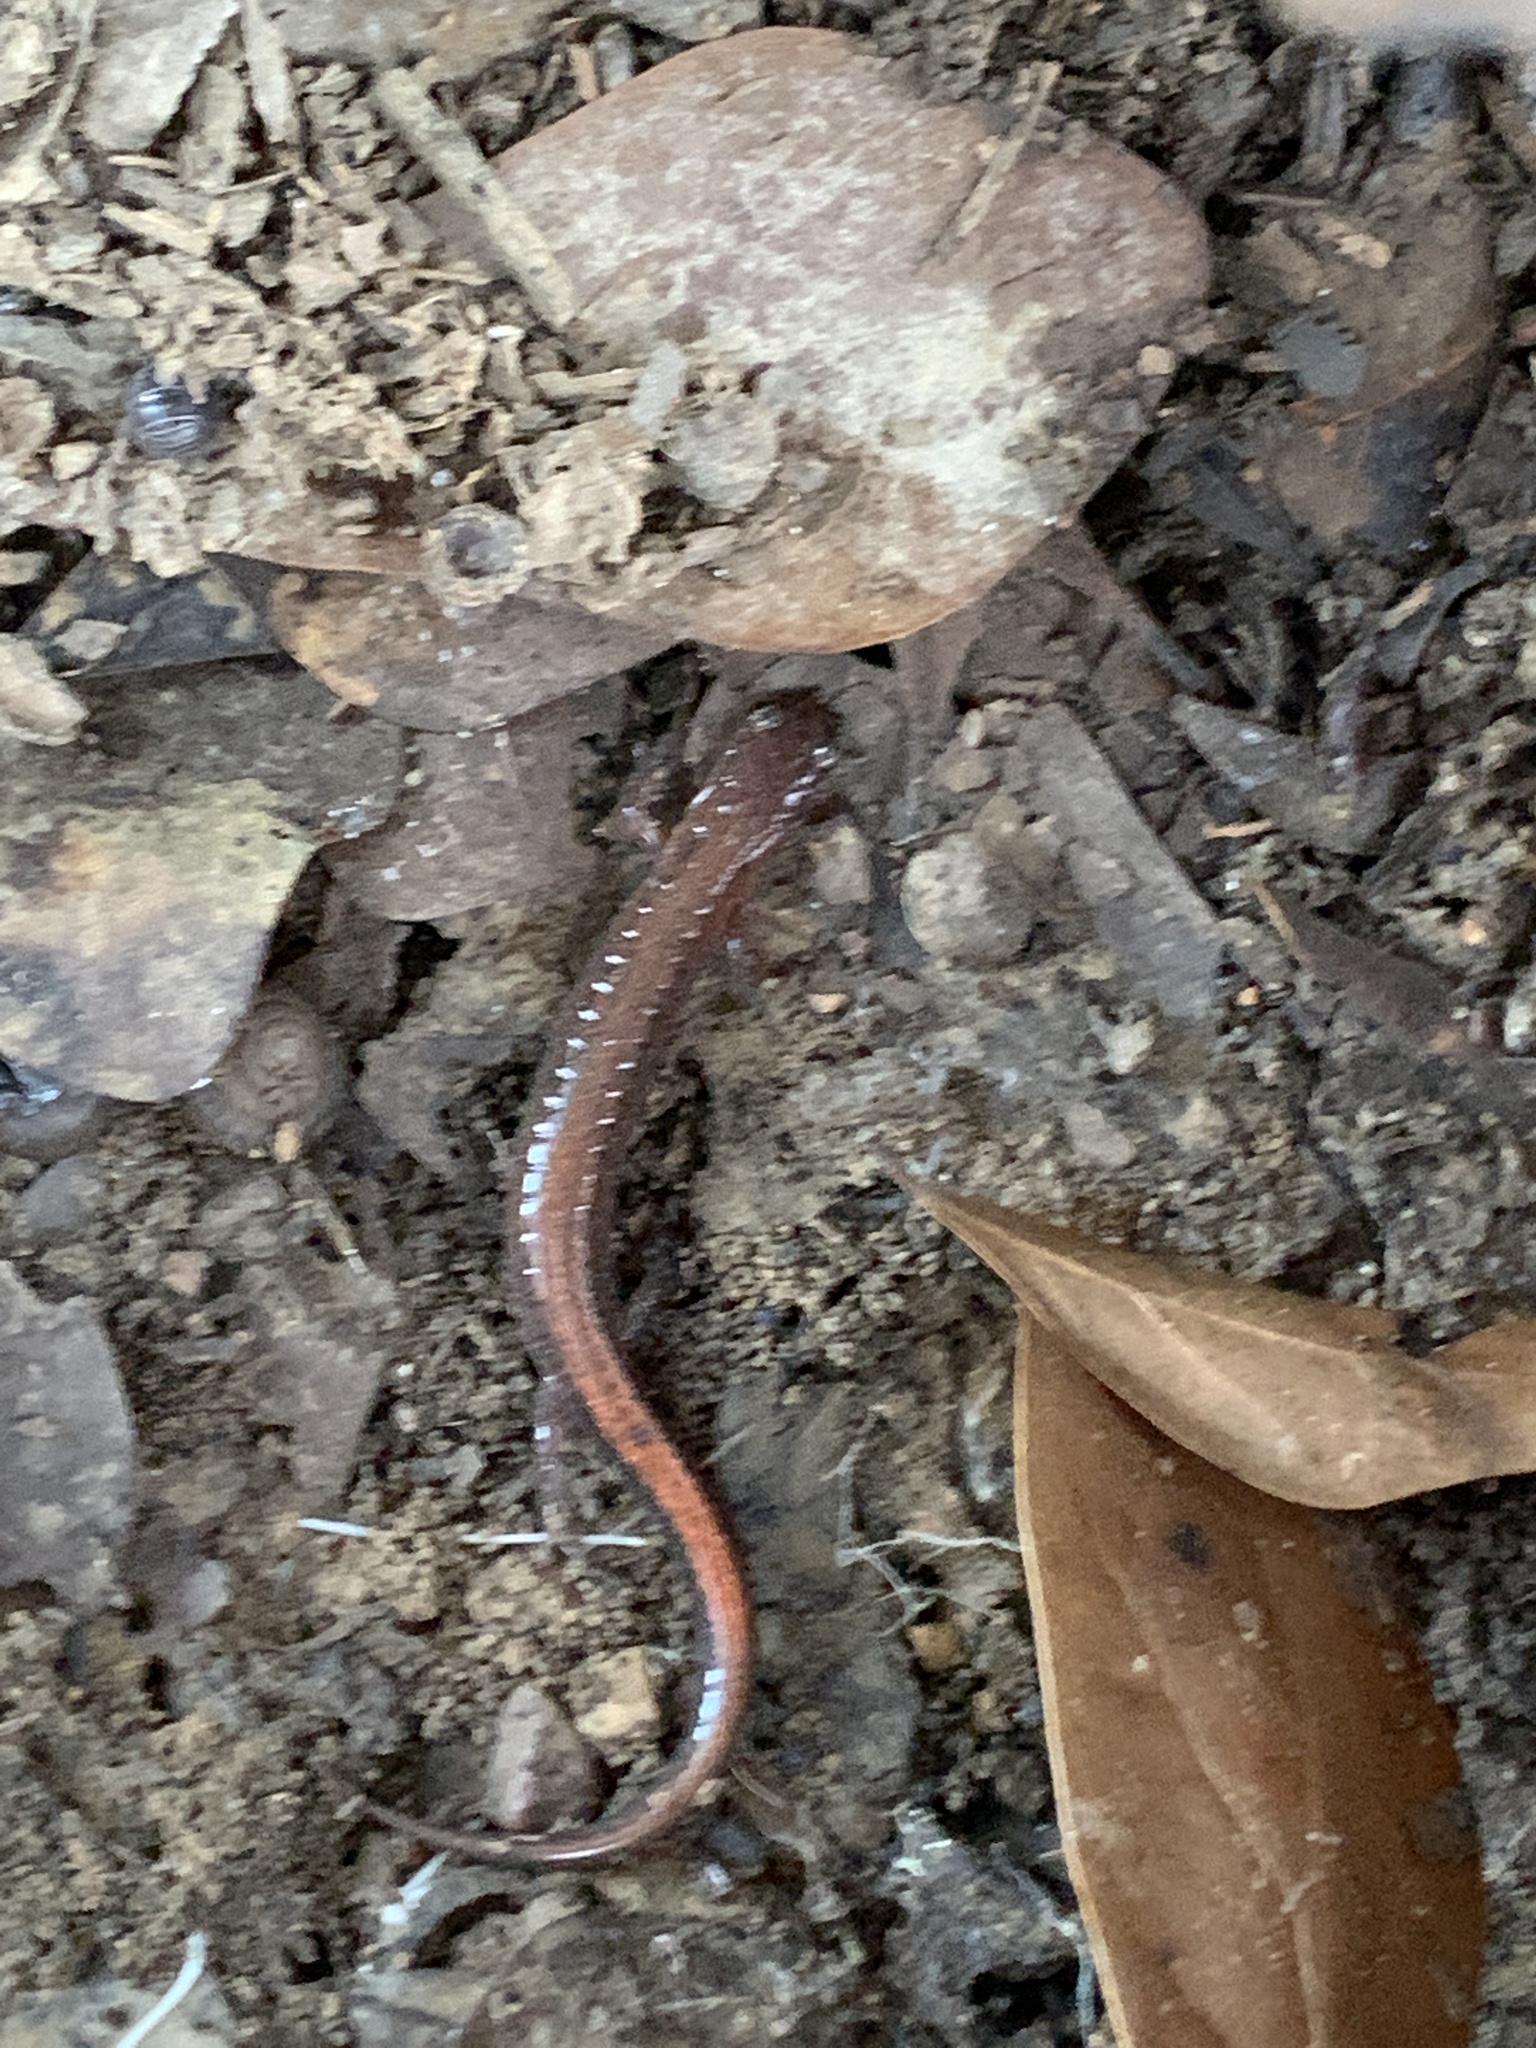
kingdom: Animalia
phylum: Chordata
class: Amphibia
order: Caudata
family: Plethodontidae
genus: Plethodon
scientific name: Plethodon ventralis
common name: Southern zigzag salamander
